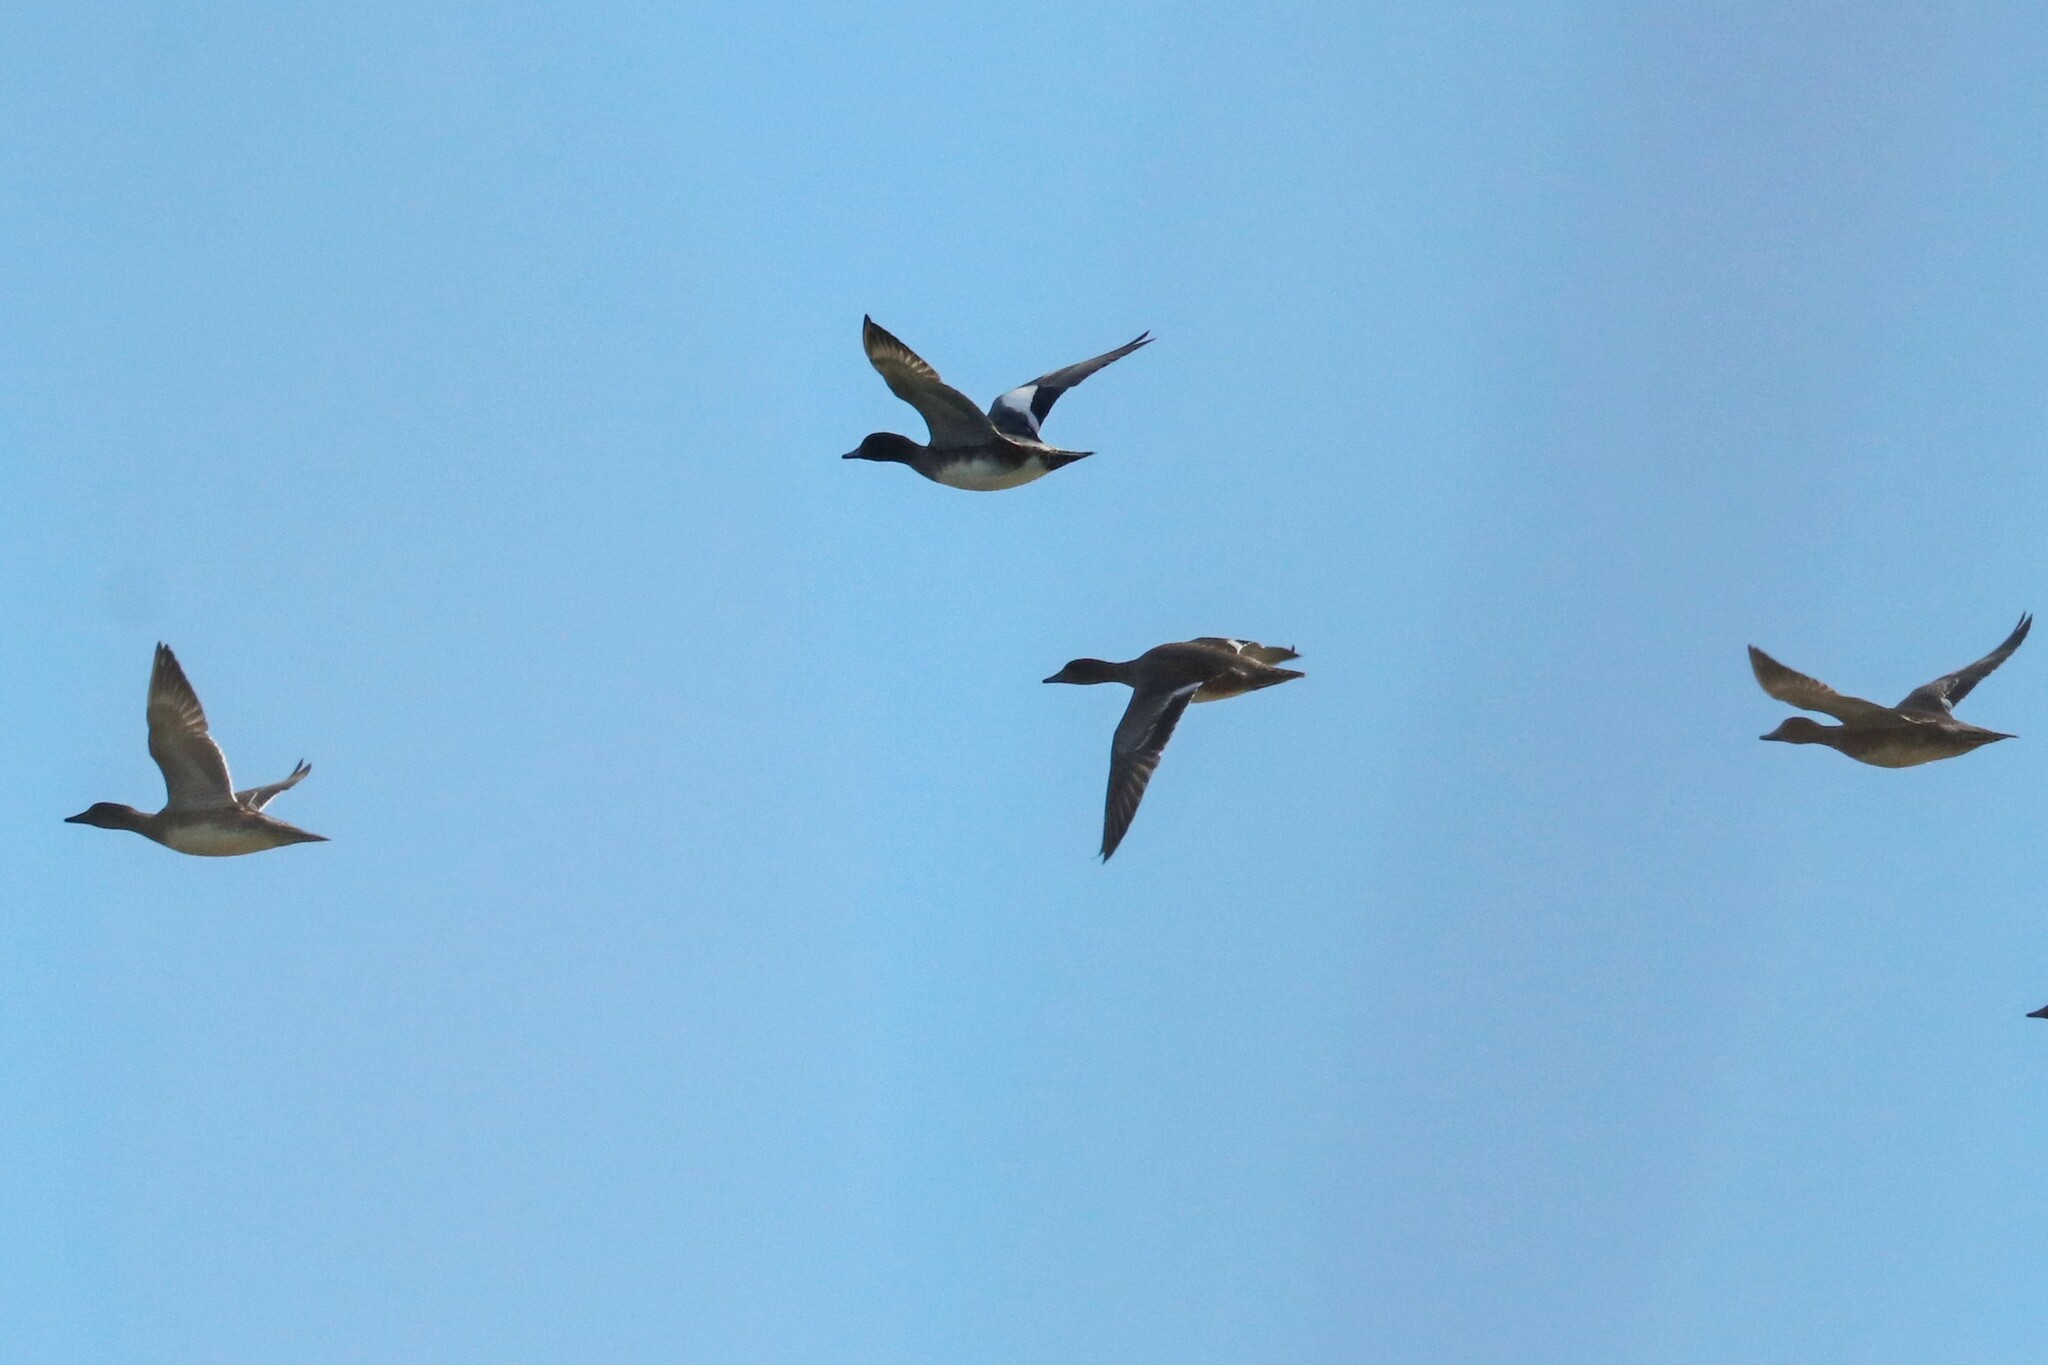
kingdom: Animalia
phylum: Chordata
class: Aves
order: Anseriformes
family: Anatidae
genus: Mareca
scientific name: Mareca penelope
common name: Eurasian wigeon
